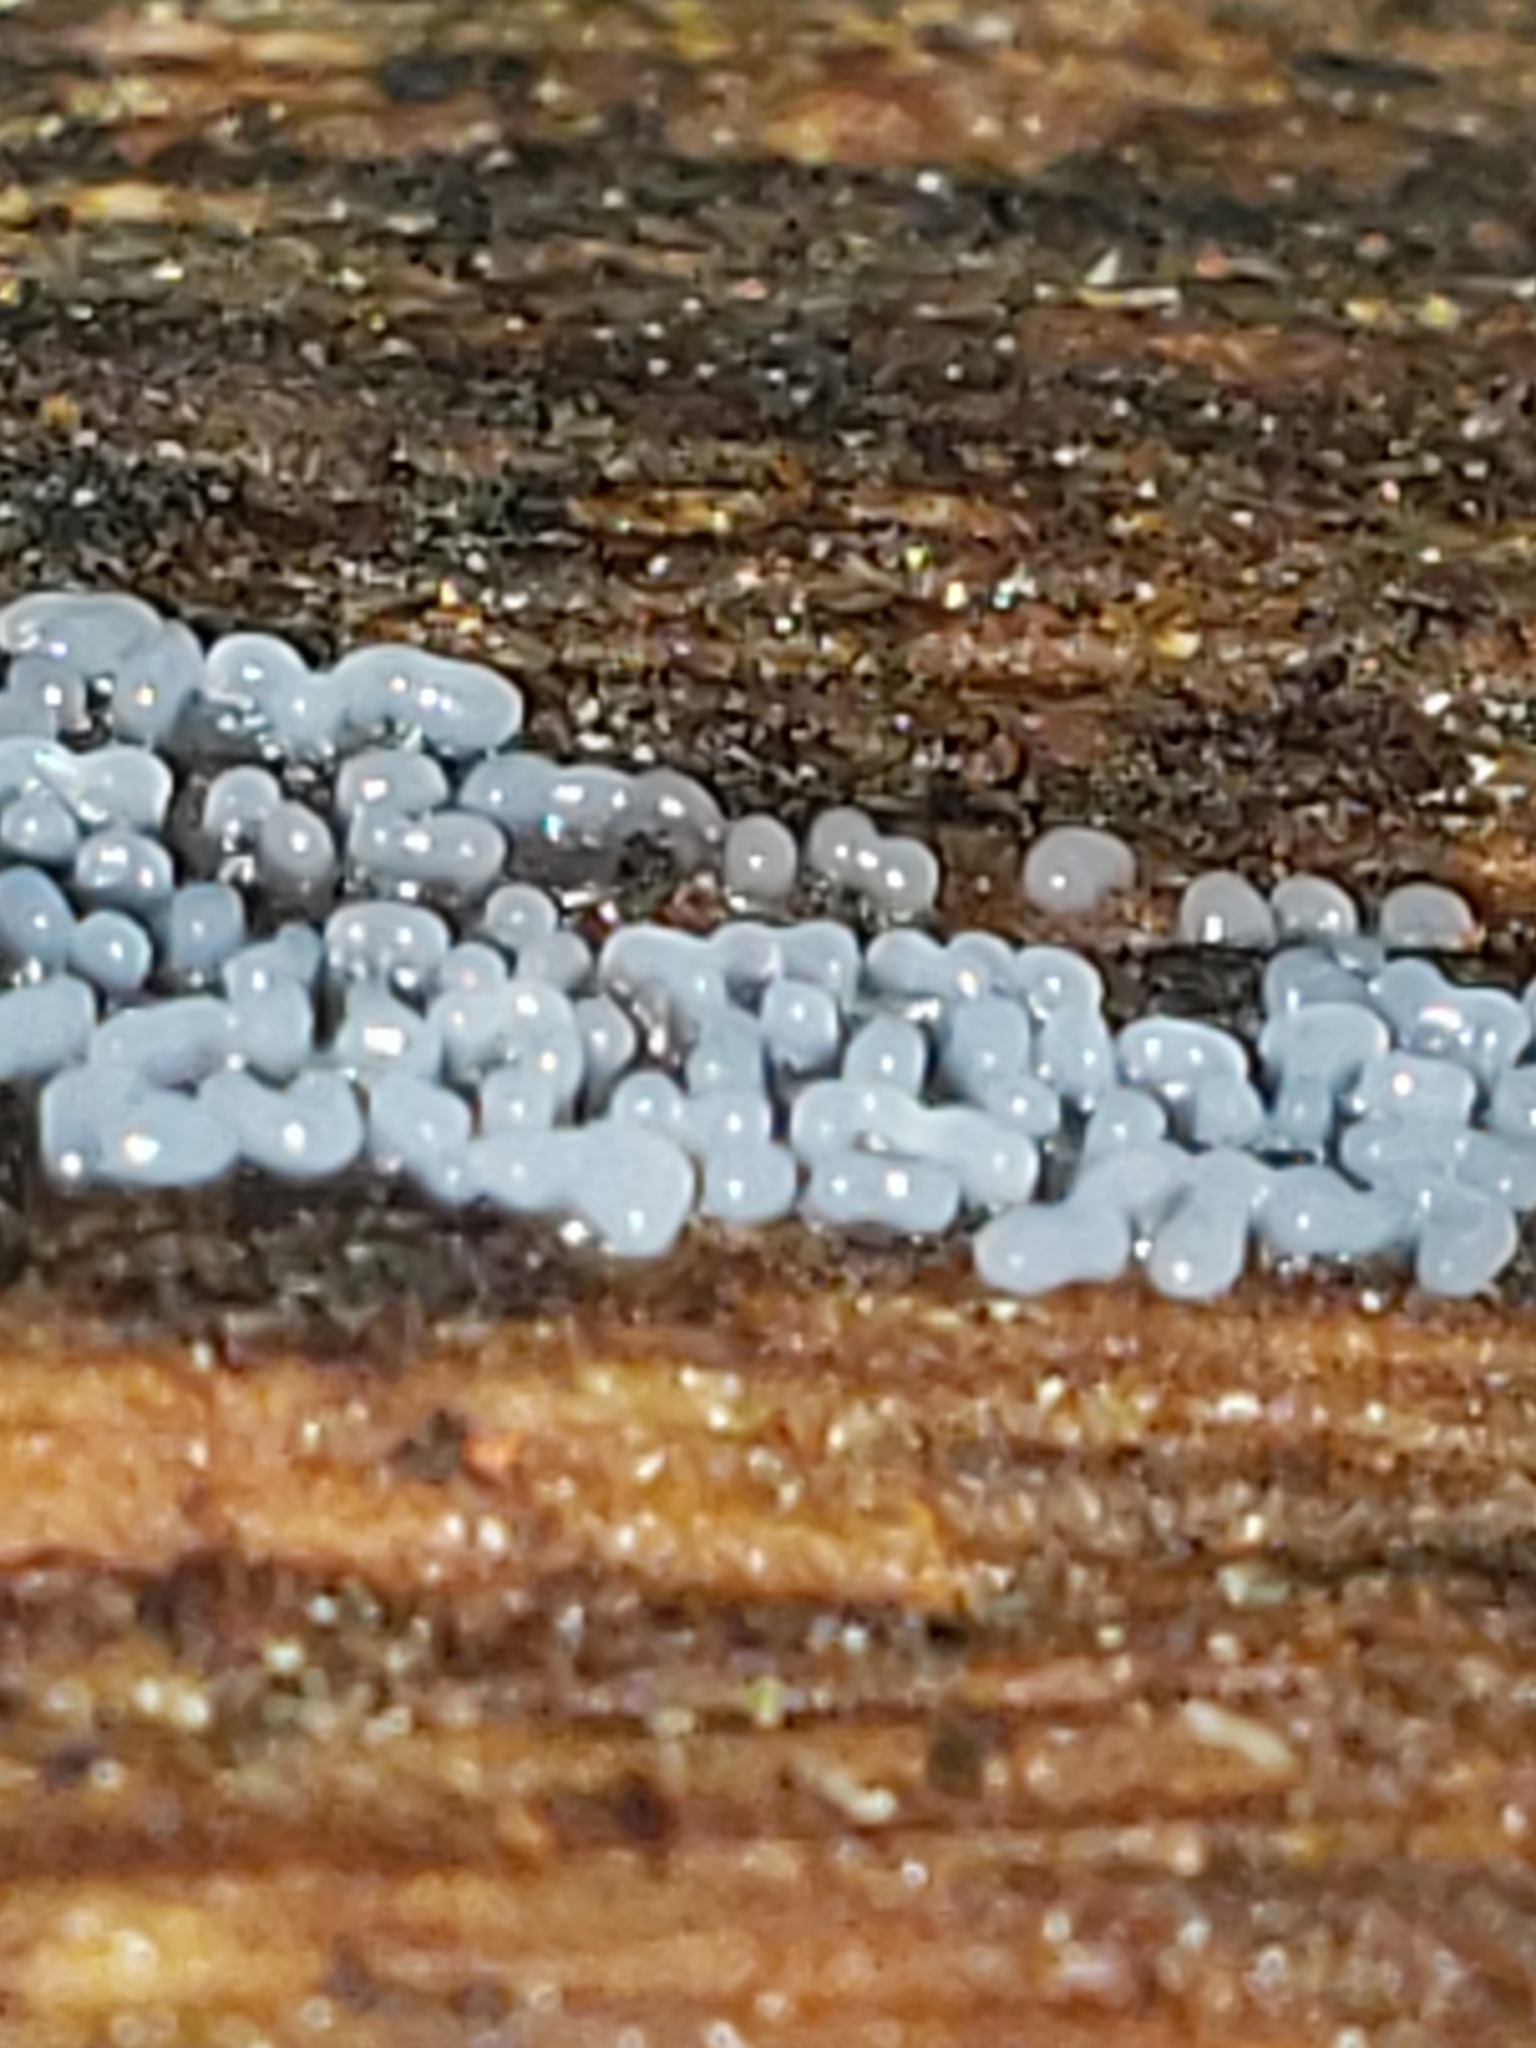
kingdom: Fungi
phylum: Basidiomycota
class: Atractiellomycetes
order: Atractiellales
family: Phleogenaceae
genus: Helicogloea
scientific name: Helicogloea compressa
